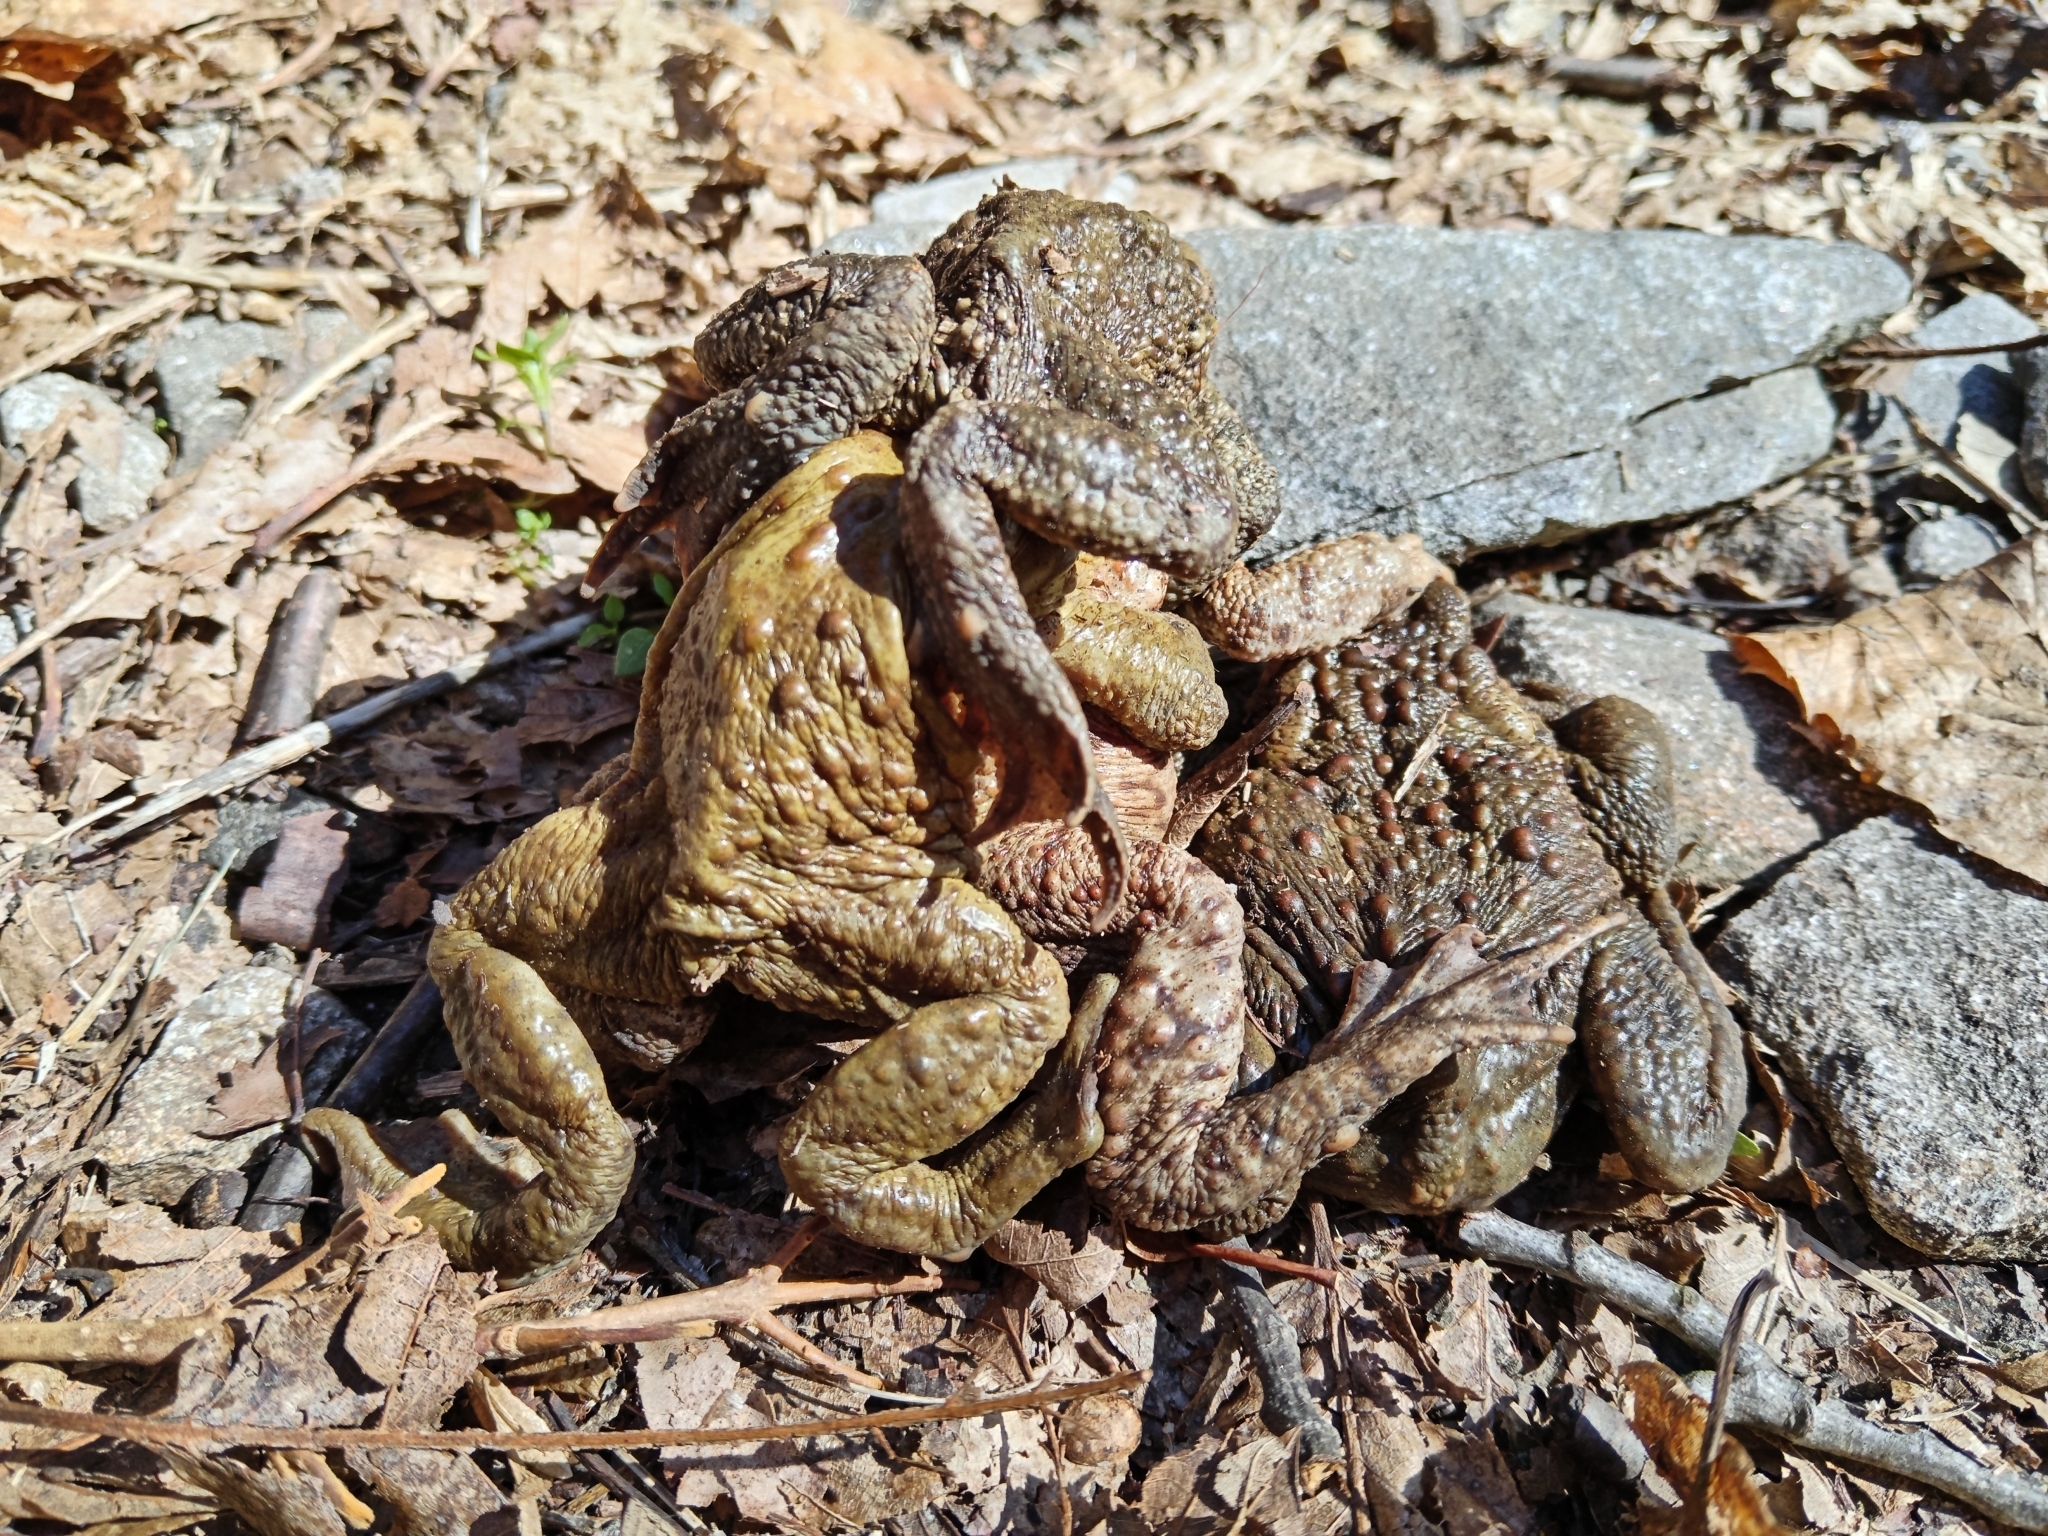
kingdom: Animalia
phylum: Chordata
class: Amphibia
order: Anura
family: Bufonidae
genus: Bufo
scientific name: Bufo bufo
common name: Common toad
